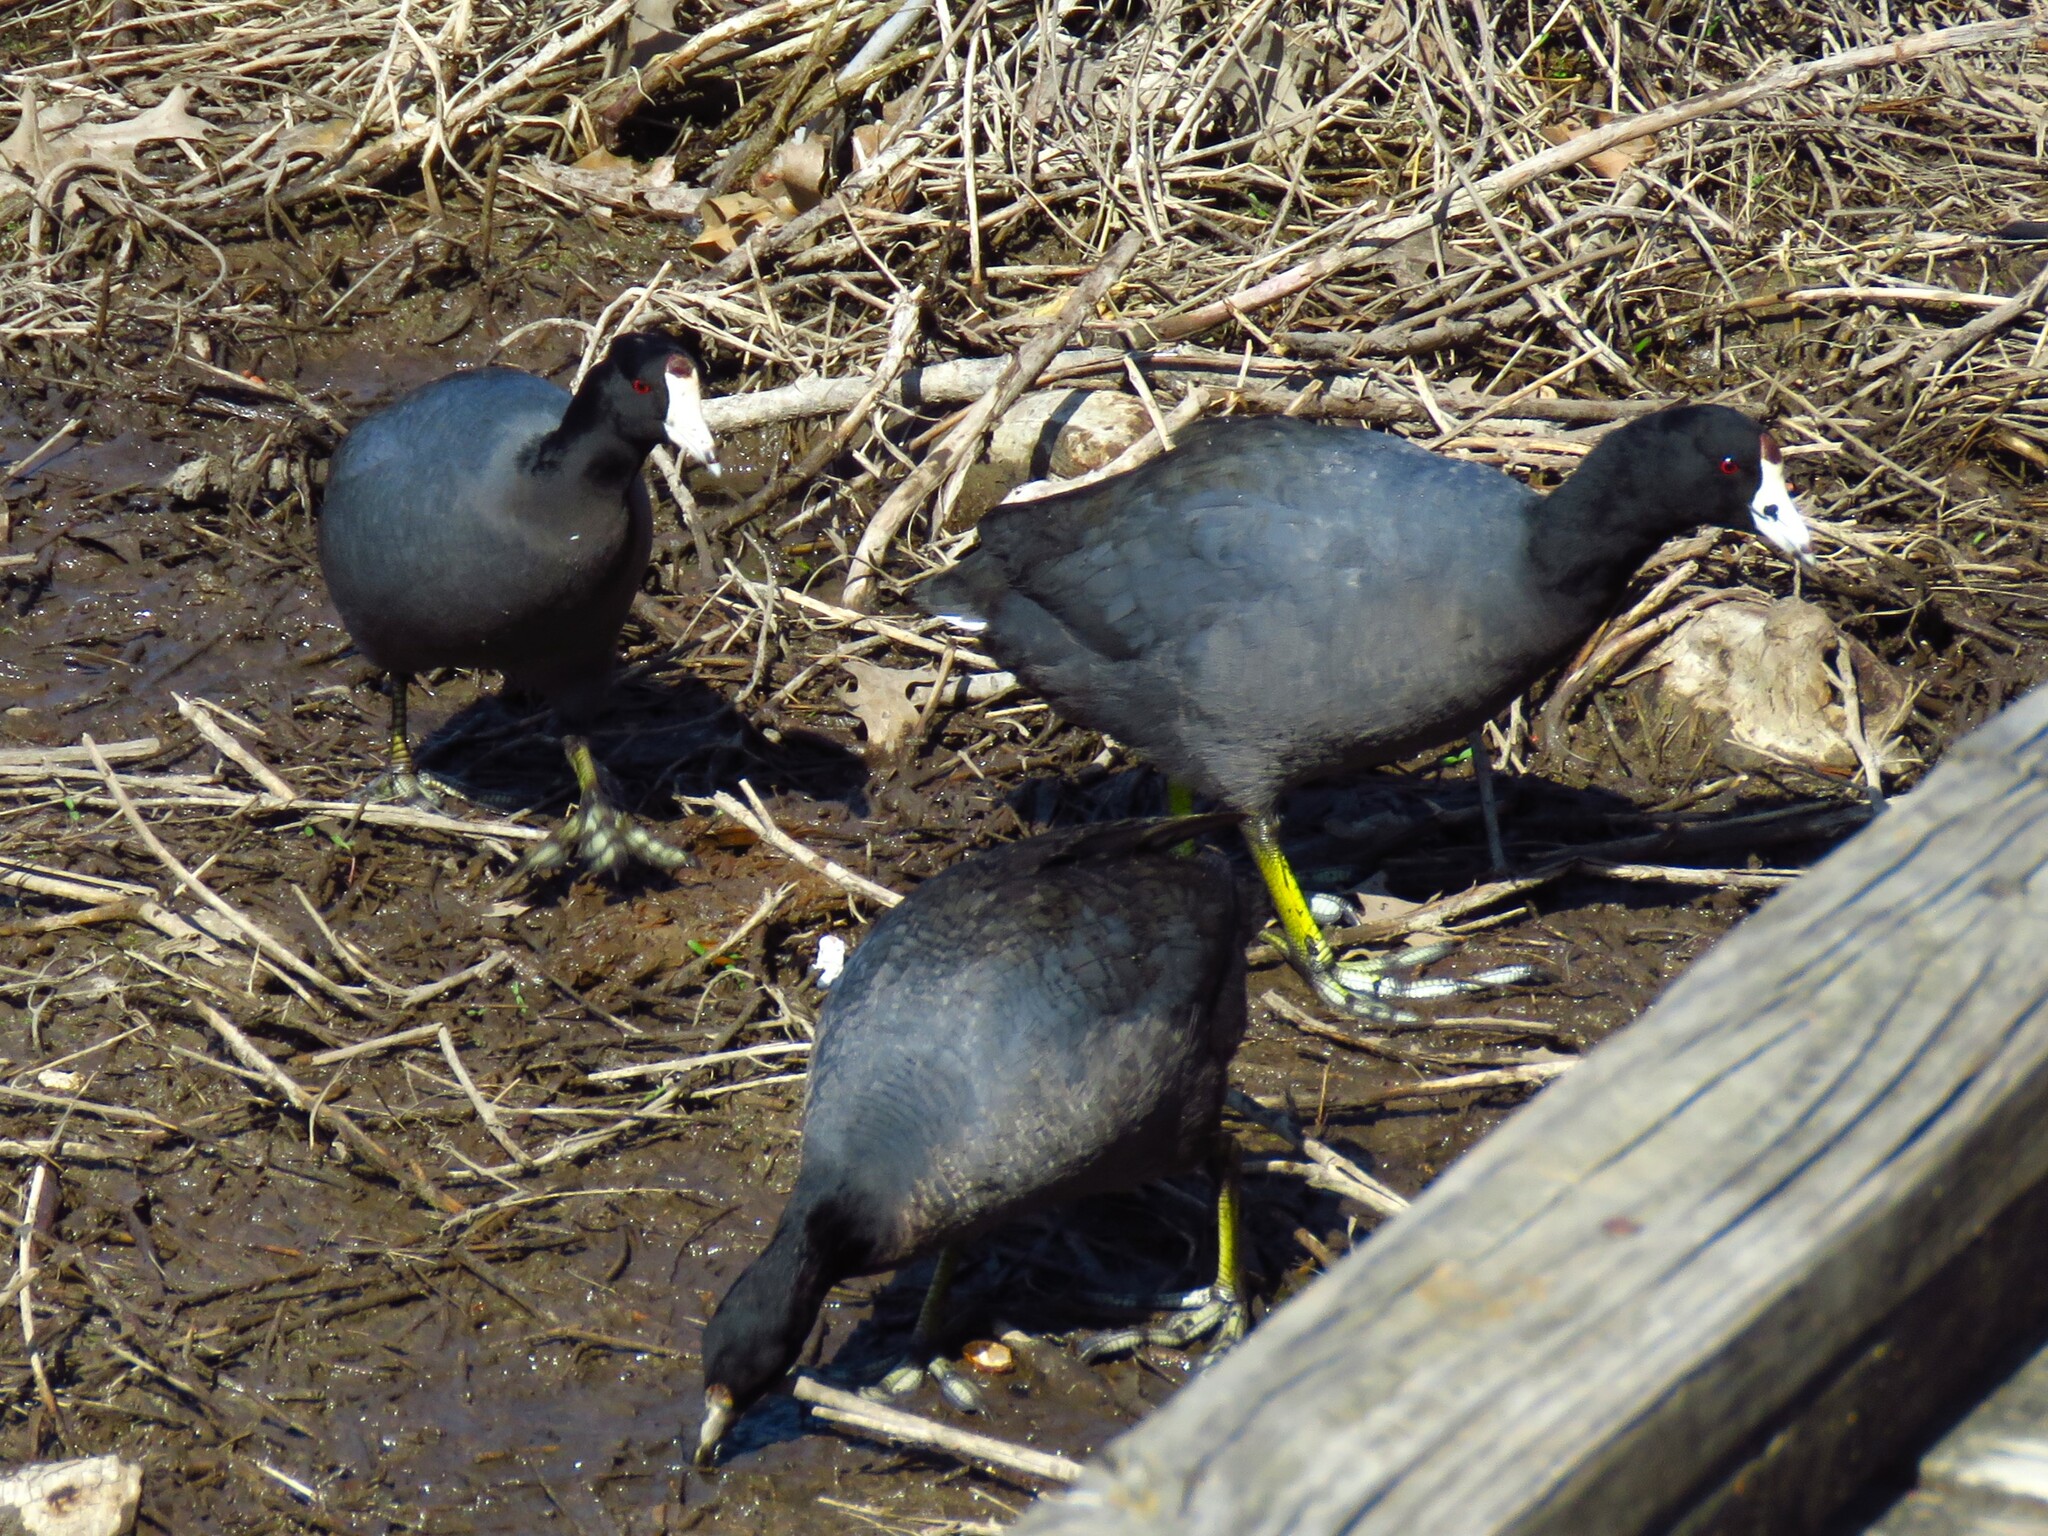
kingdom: Animalia
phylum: Chordata
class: Aves
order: Gruiformes
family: Rallidae
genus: Fulica
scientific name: Fulica americana
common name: American coot
